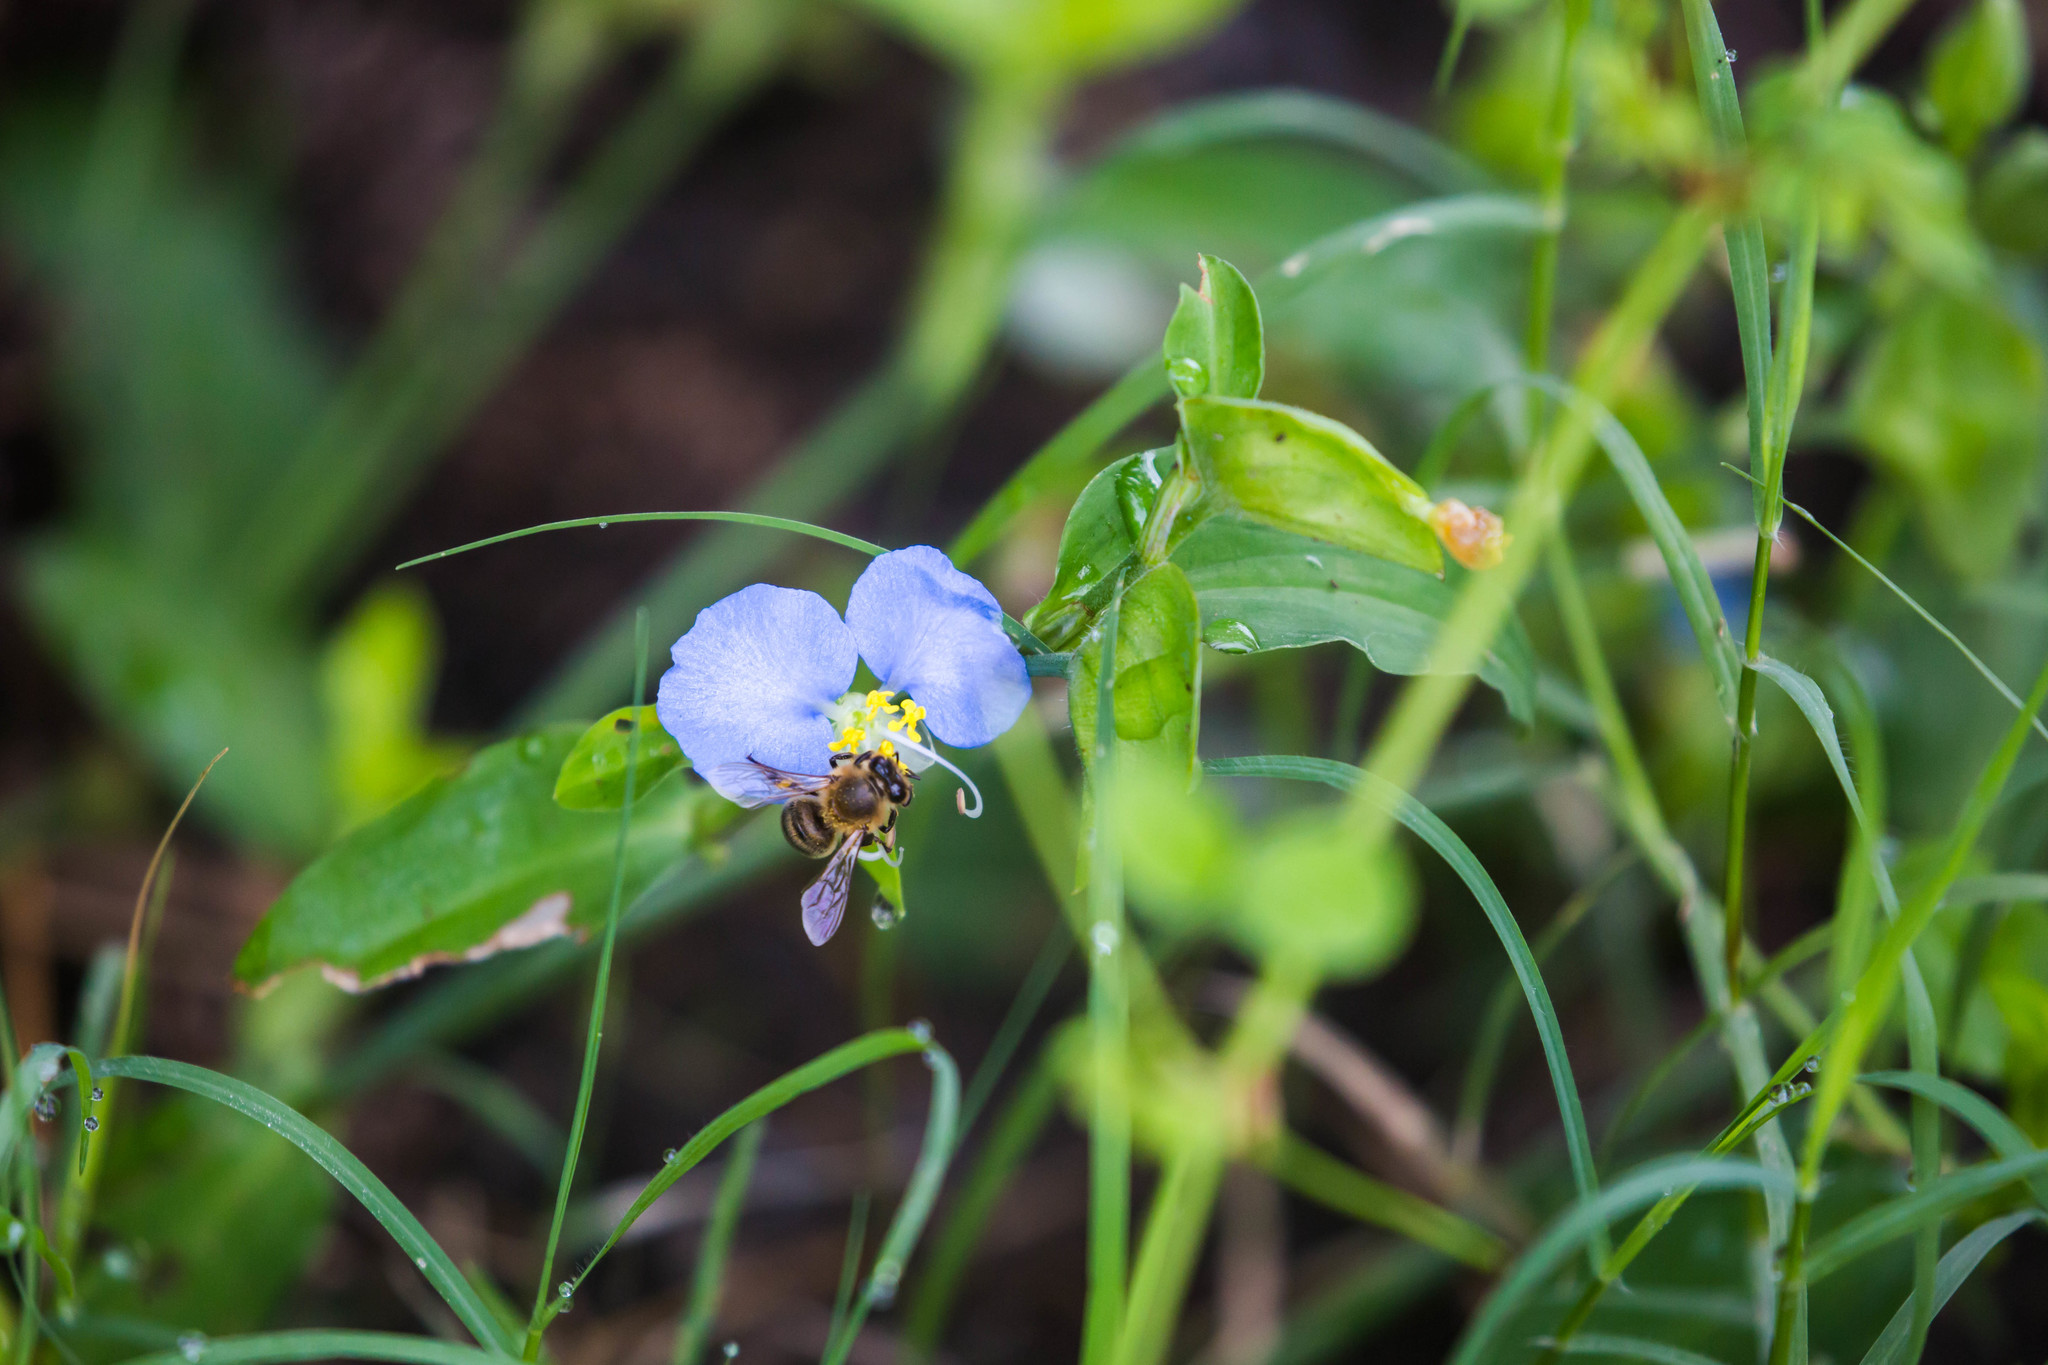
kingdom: Animalia
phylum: Arthropoda
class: Insecta
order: Hymenoptera
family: Apidae
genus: Apis
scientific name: Apis mellifera
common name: Honey bee
